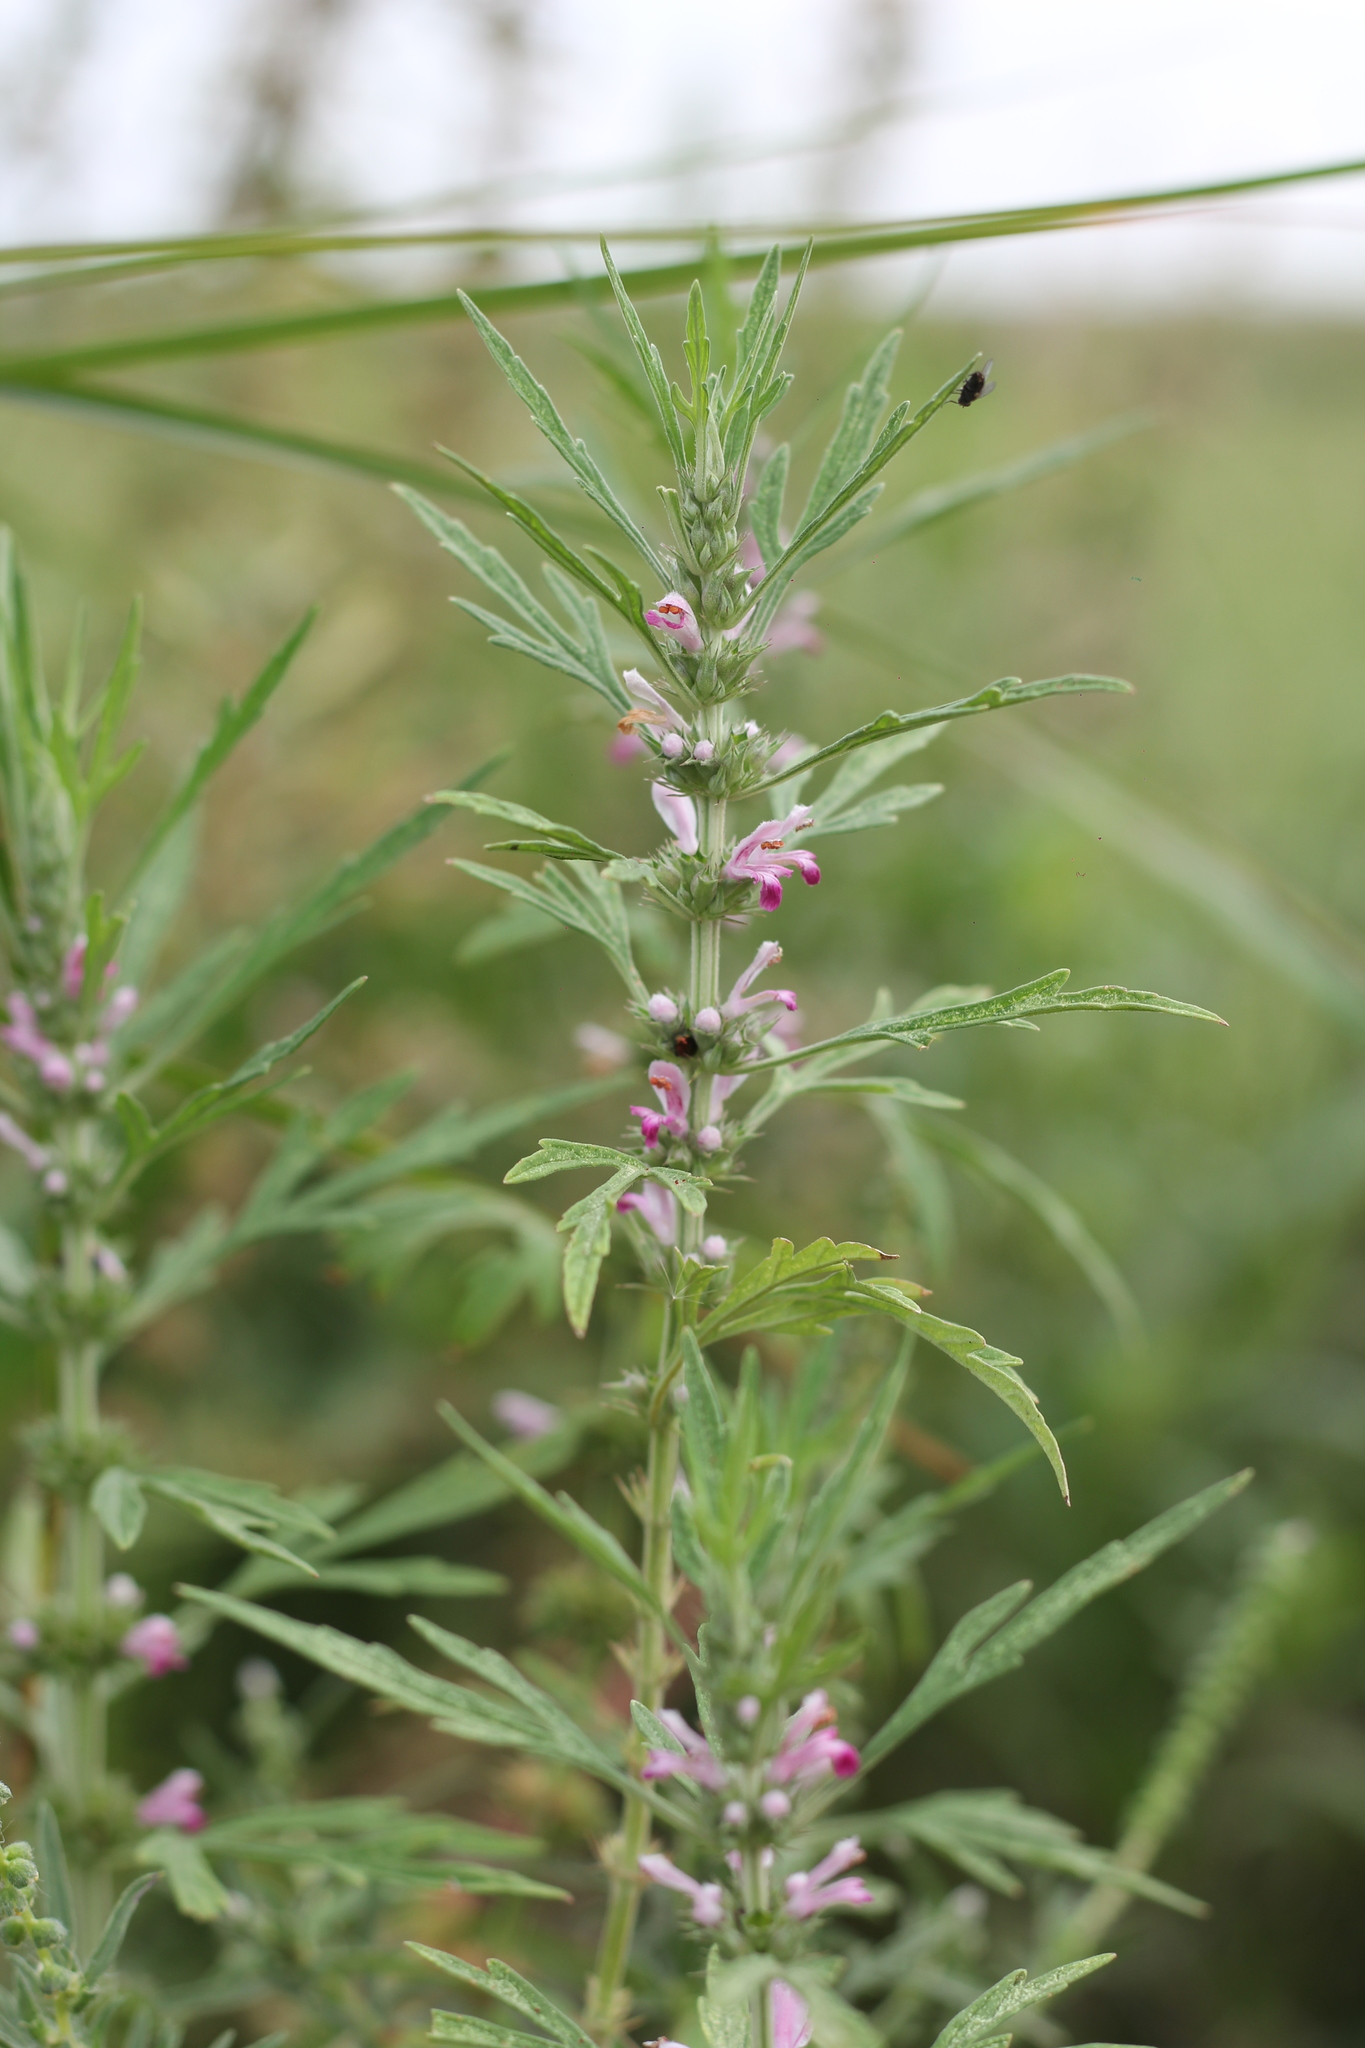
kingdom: Plantae
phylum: Tracheophyta
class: Magnoliopsida
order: Lamiales
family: Lamiaceae
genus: Leonurus
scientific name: Leonurus japonicus
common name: Honeyweed
